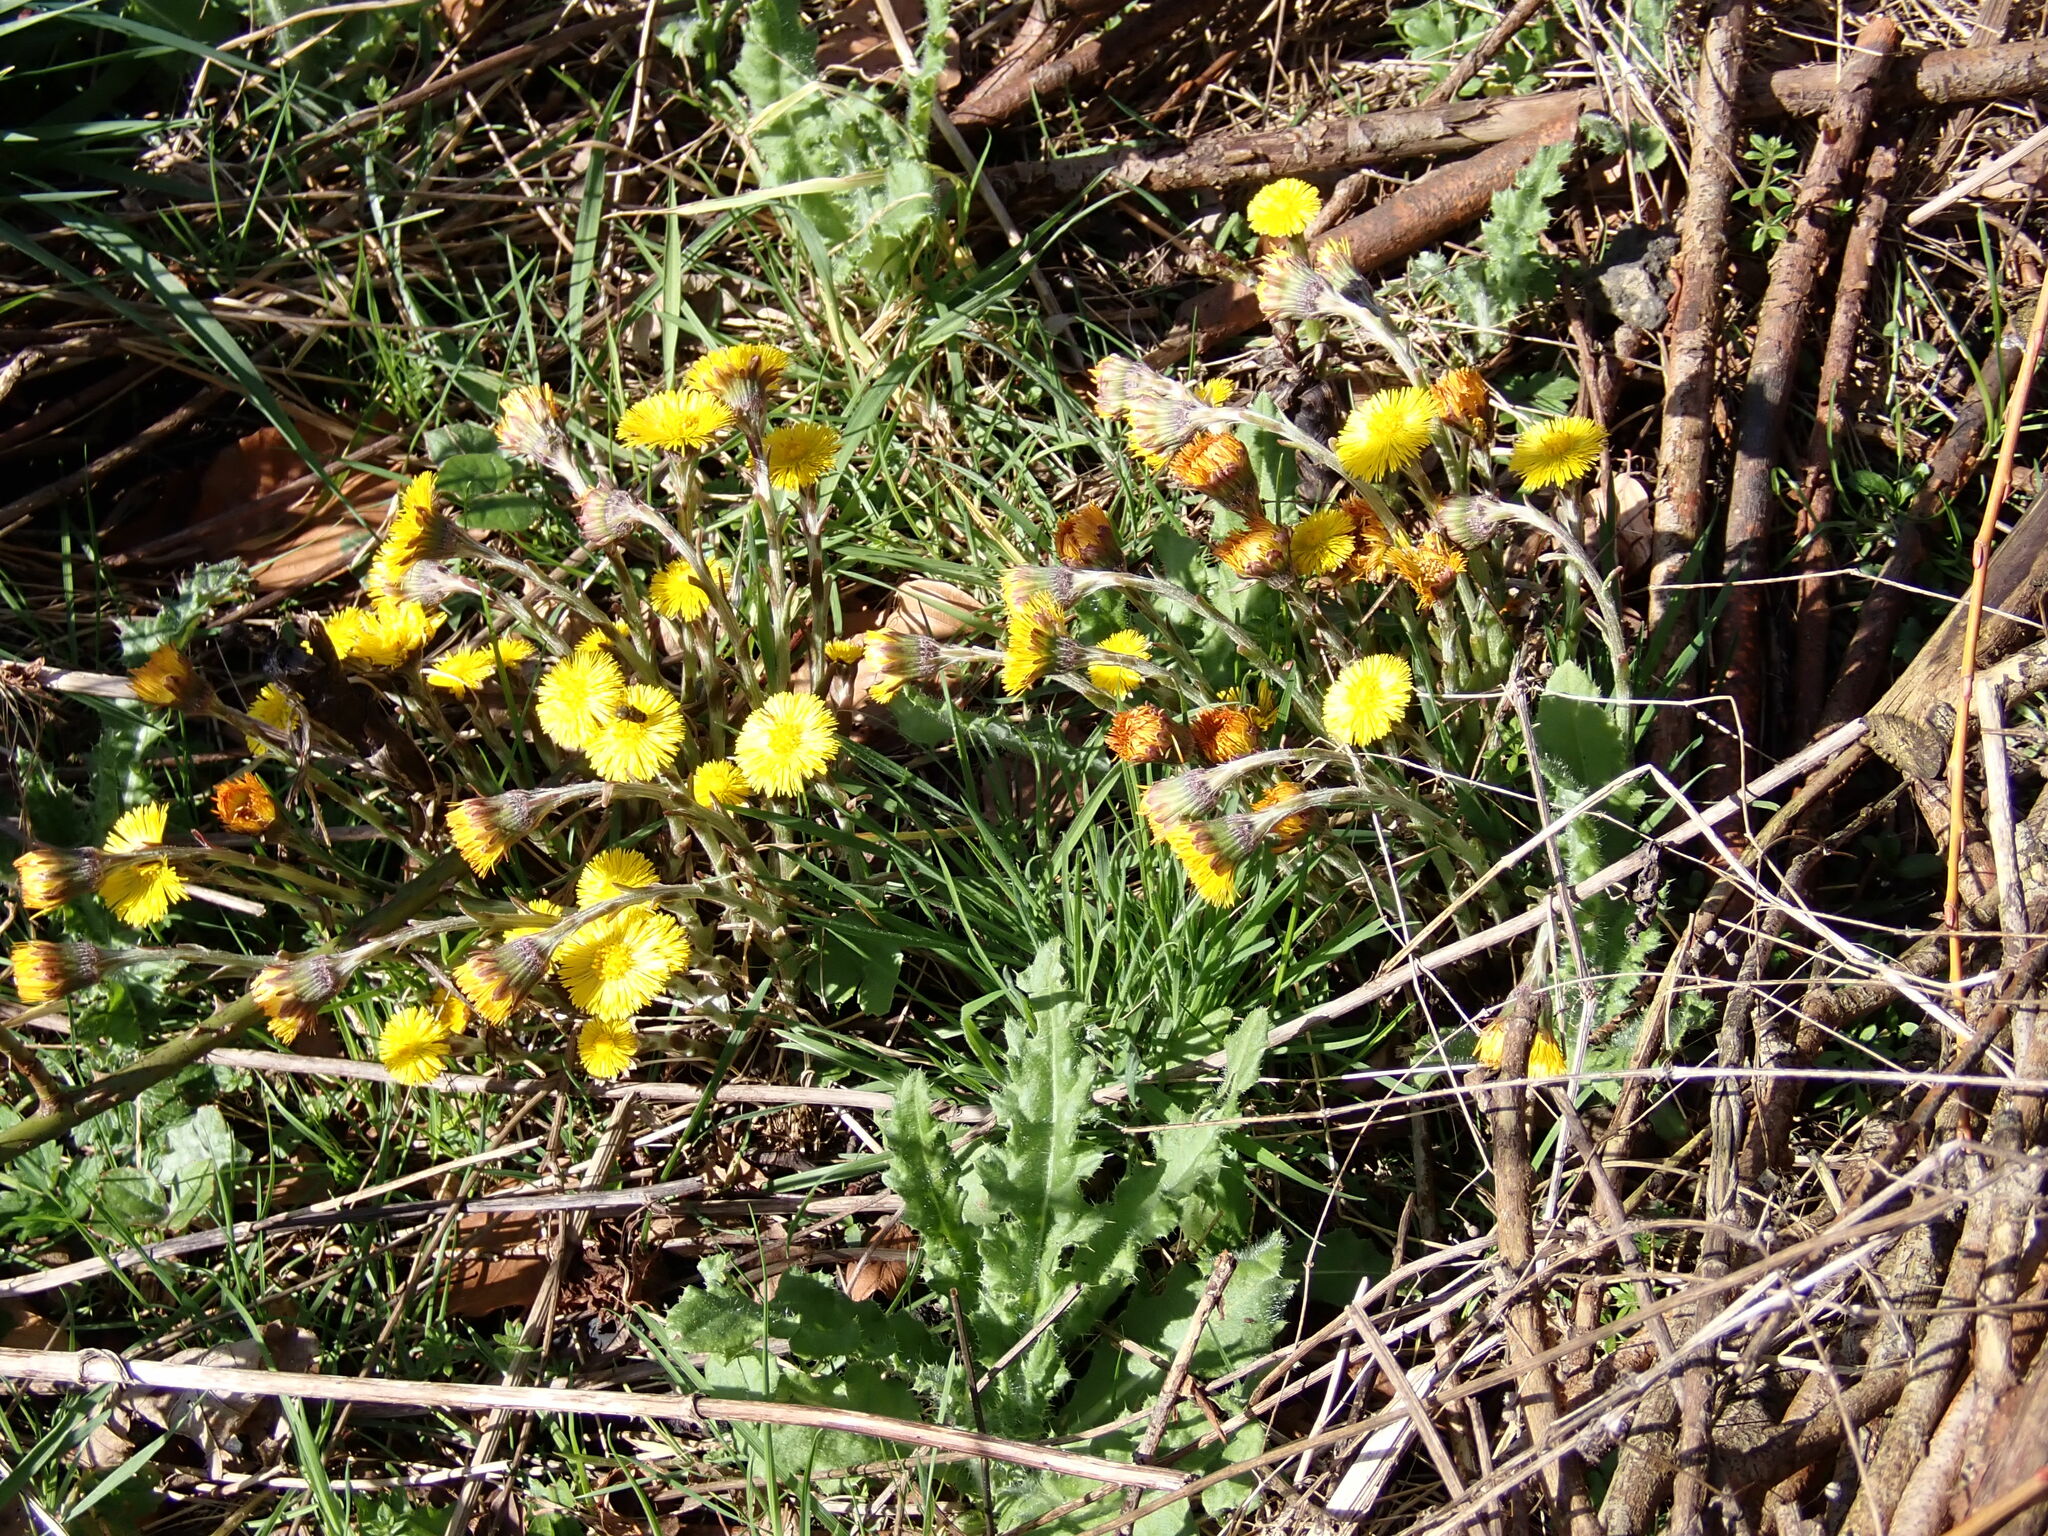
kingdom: Plantae
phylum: Tracheophyta
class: Magnoliopsida
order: Asterales
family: Asteraceae
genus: Tussilago
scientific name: Tussilago farfara
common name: Coltsfoot
